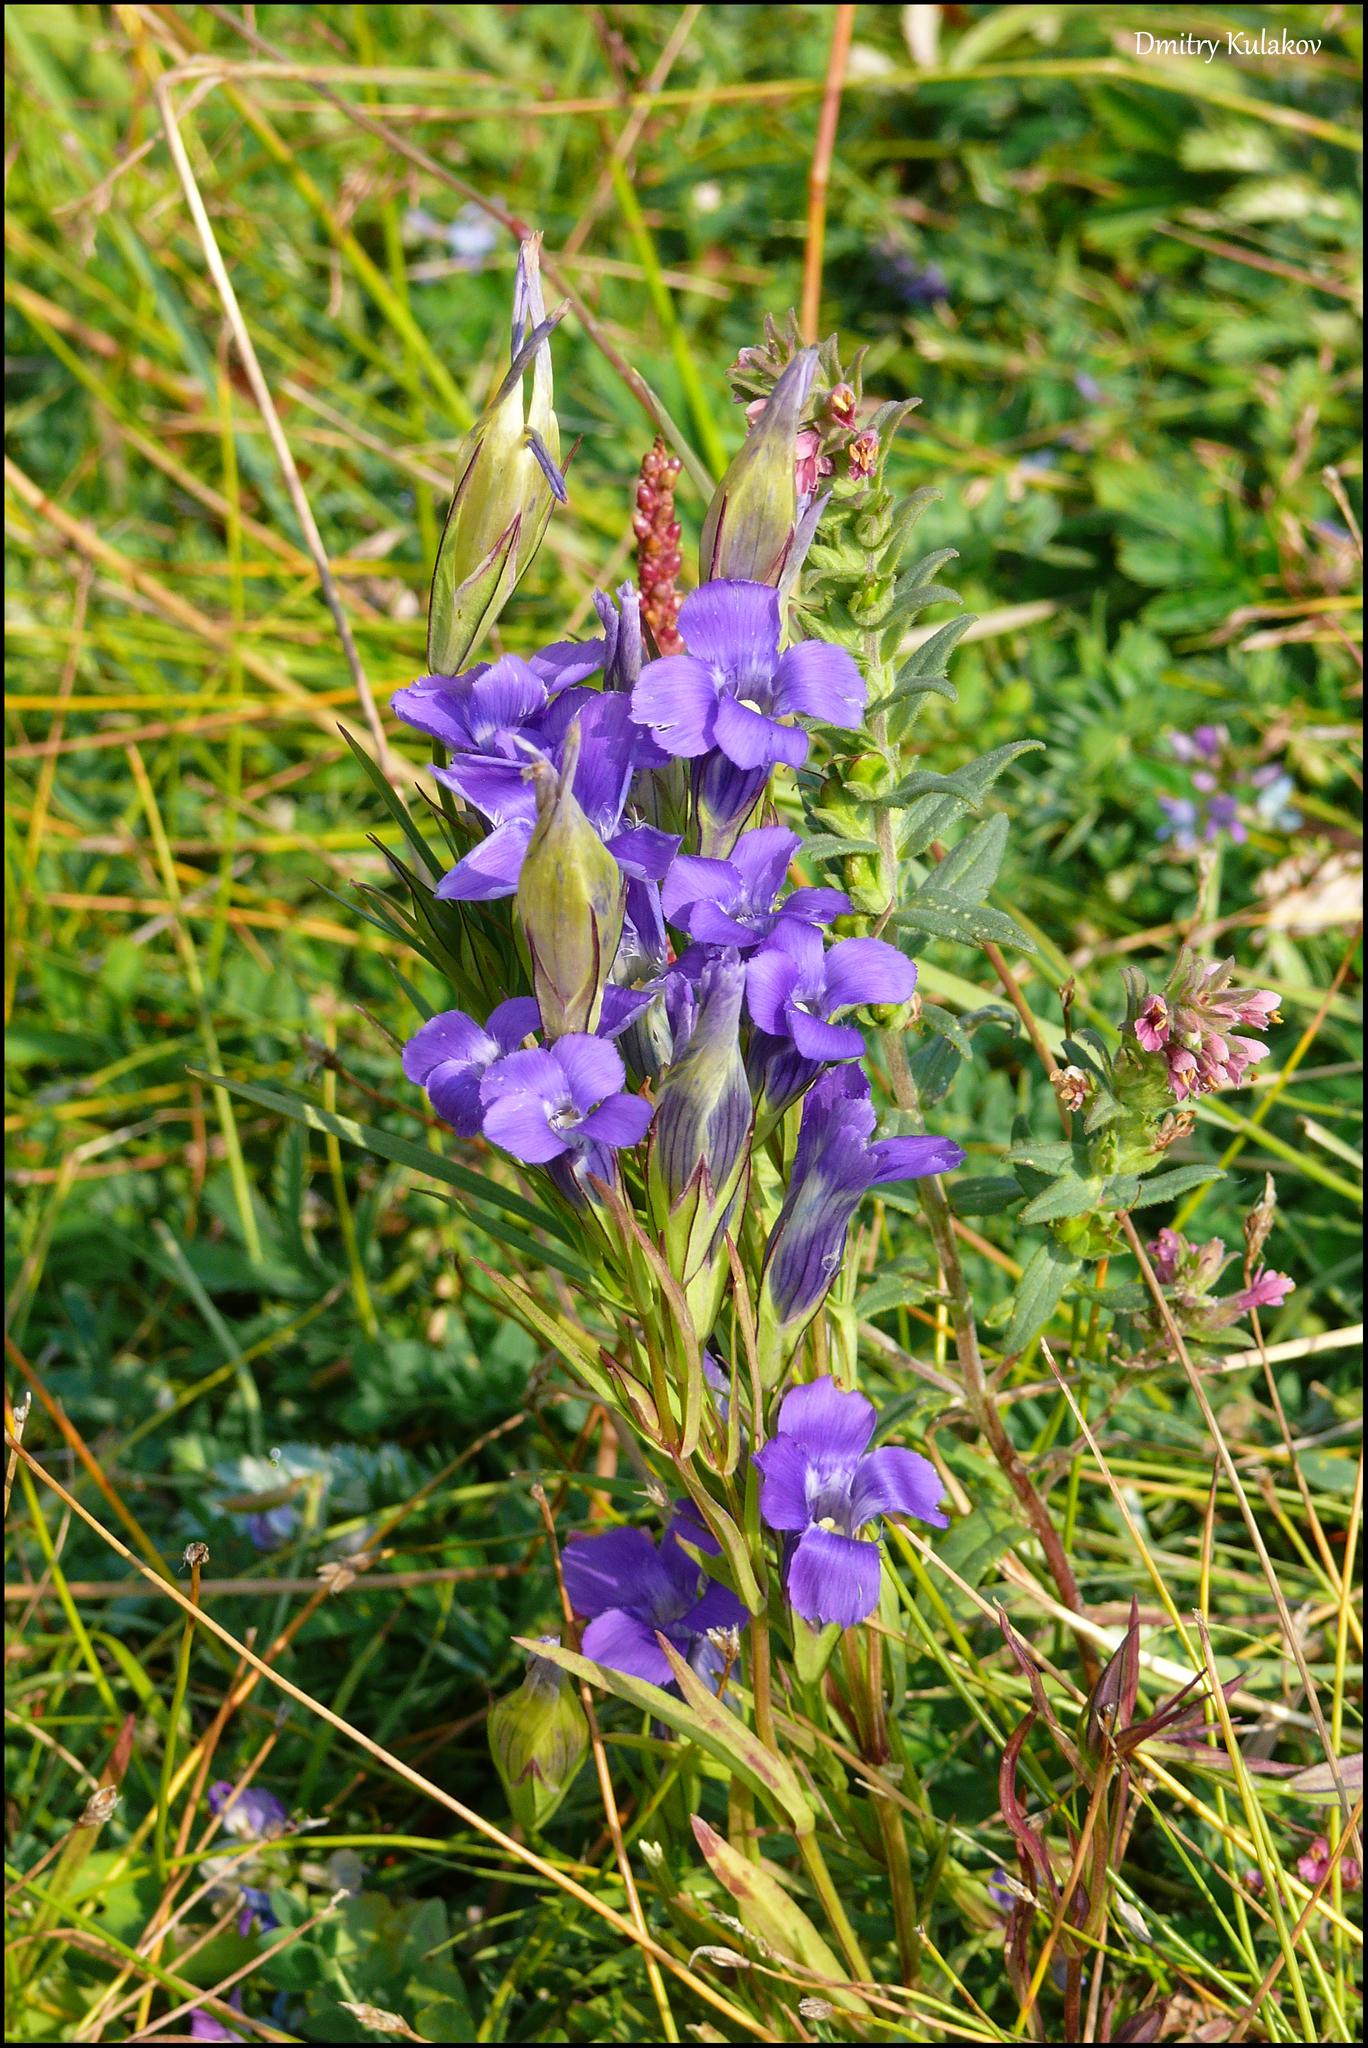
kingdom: Plantae
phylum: Tracheophyta
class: Magnoliopsida
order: Gentianales
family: Gentianaceae
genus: Gentianopsis
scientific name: Gentianopsis barbata
